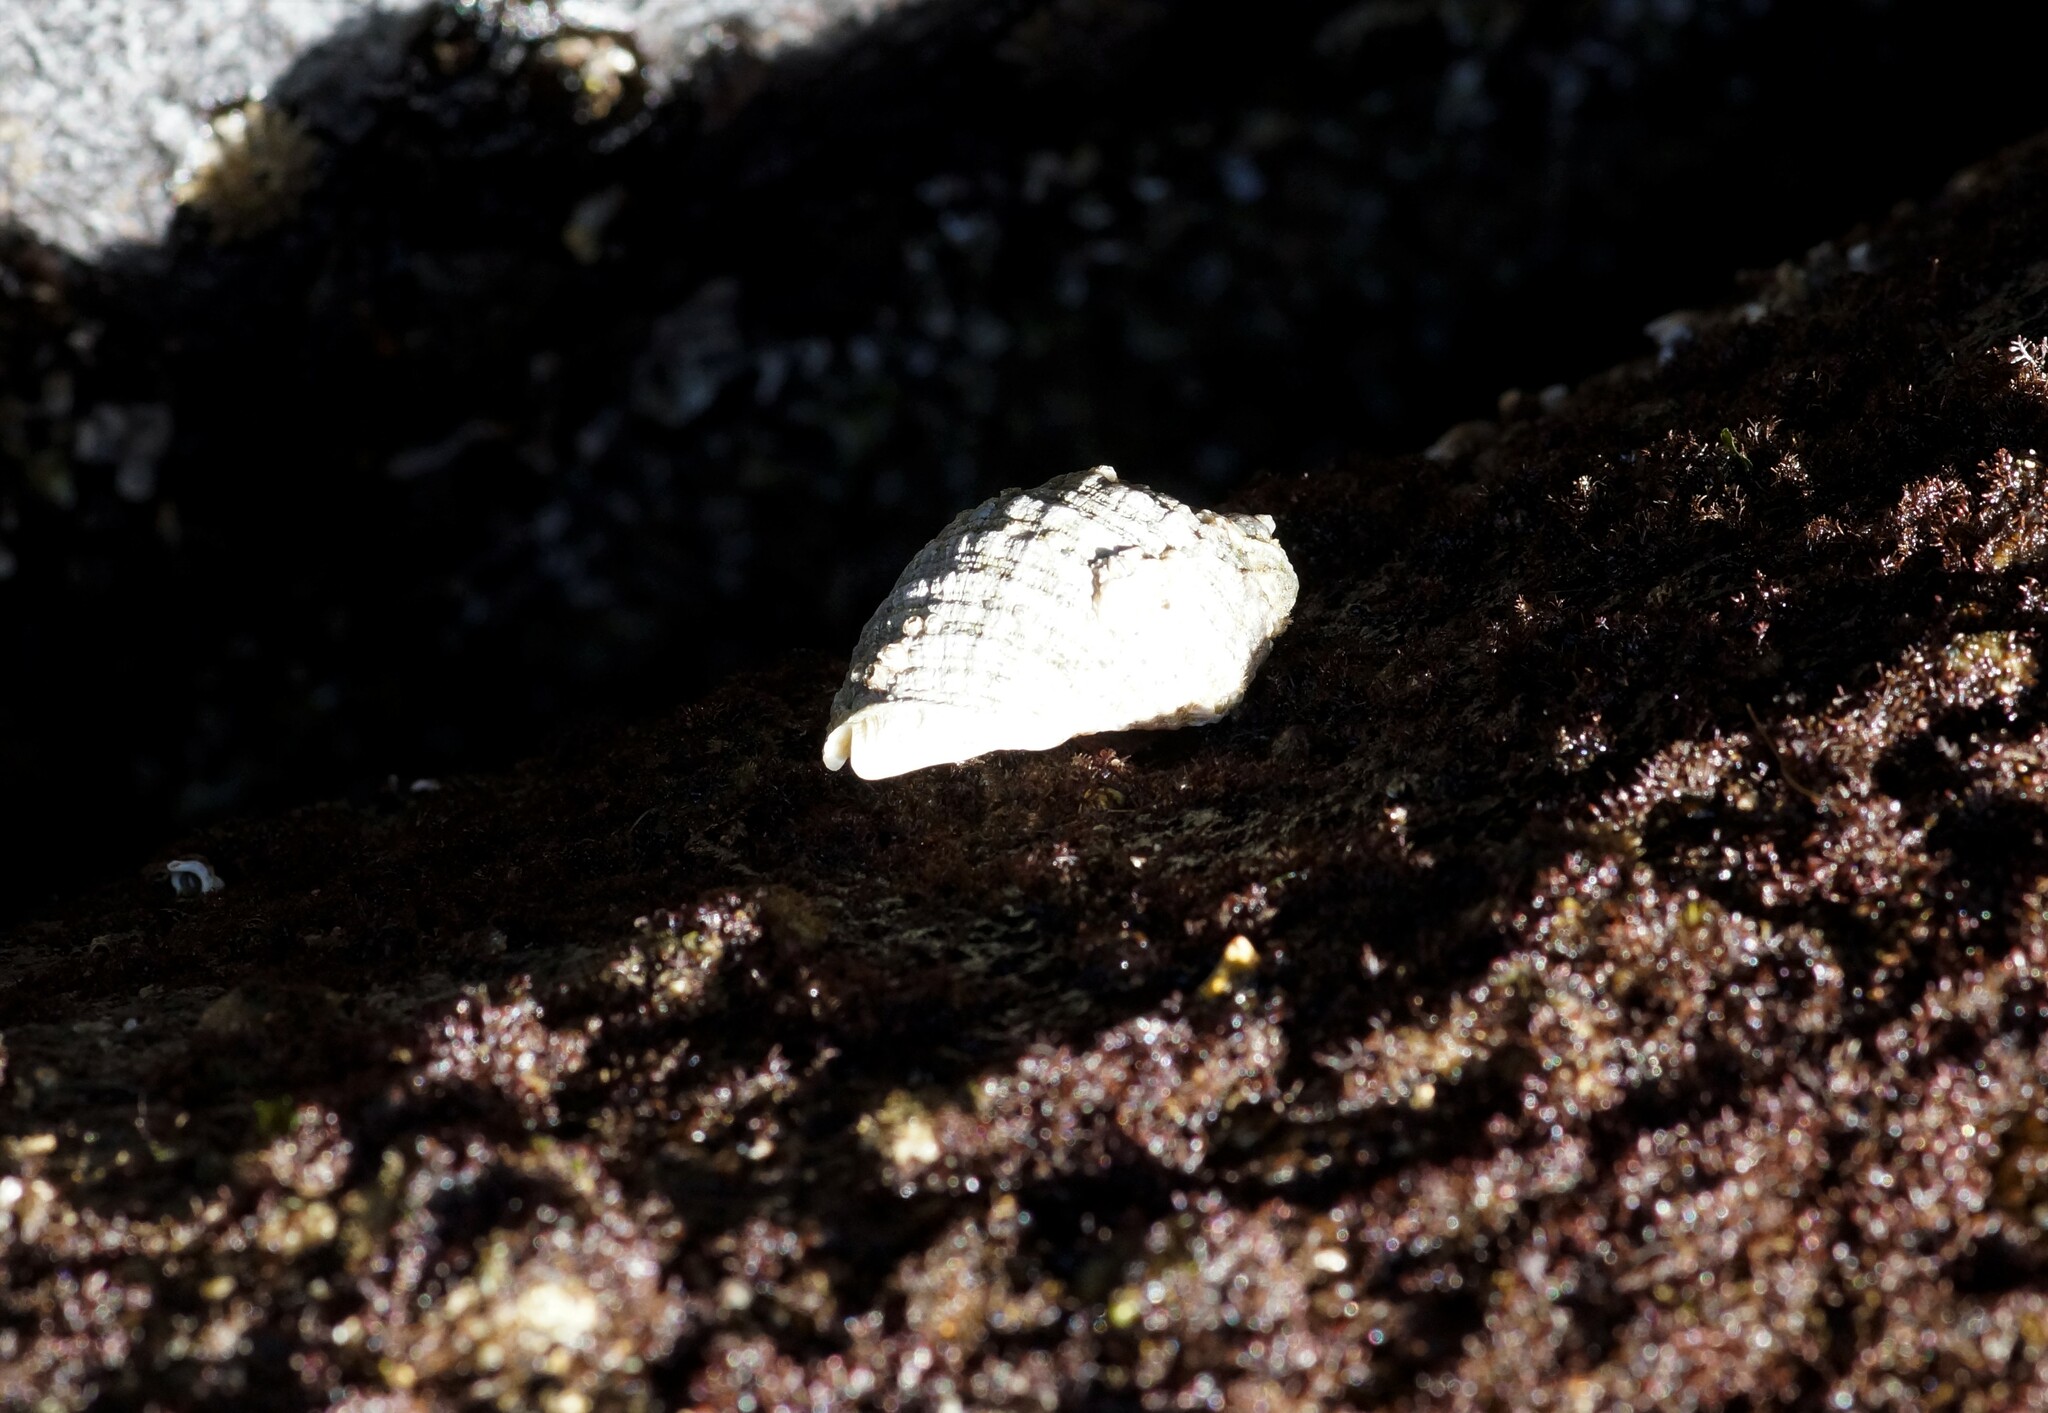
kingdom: Animalia
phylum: Mollusca
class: Gastropoda
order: Neogastropoda
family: Muricidae
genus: Dicathais
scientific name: Dicathais orbita
